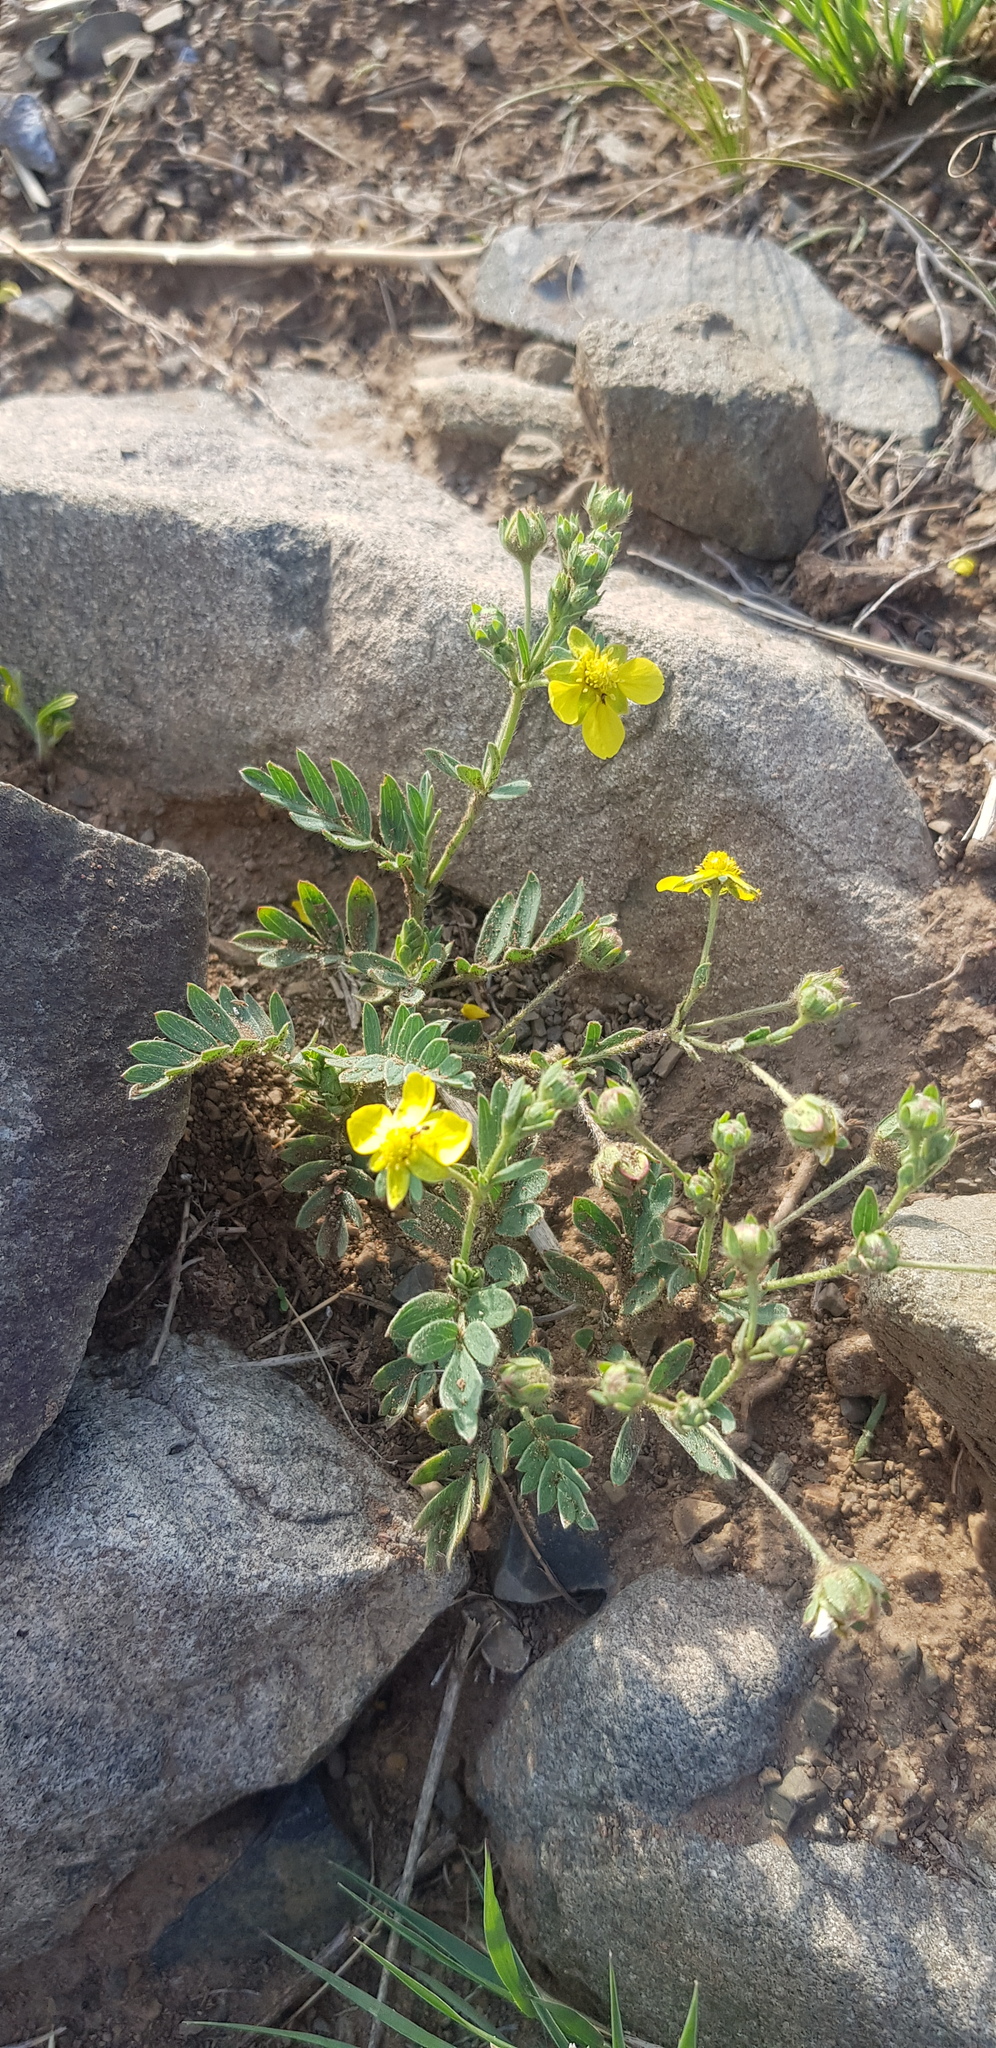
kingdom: Plantae
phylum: Tracheophyta
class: Magnoliopsida
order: Rosales
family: Rosaceae
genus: Sibbaldianthe
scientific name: Sibbaldianthe bifurca
